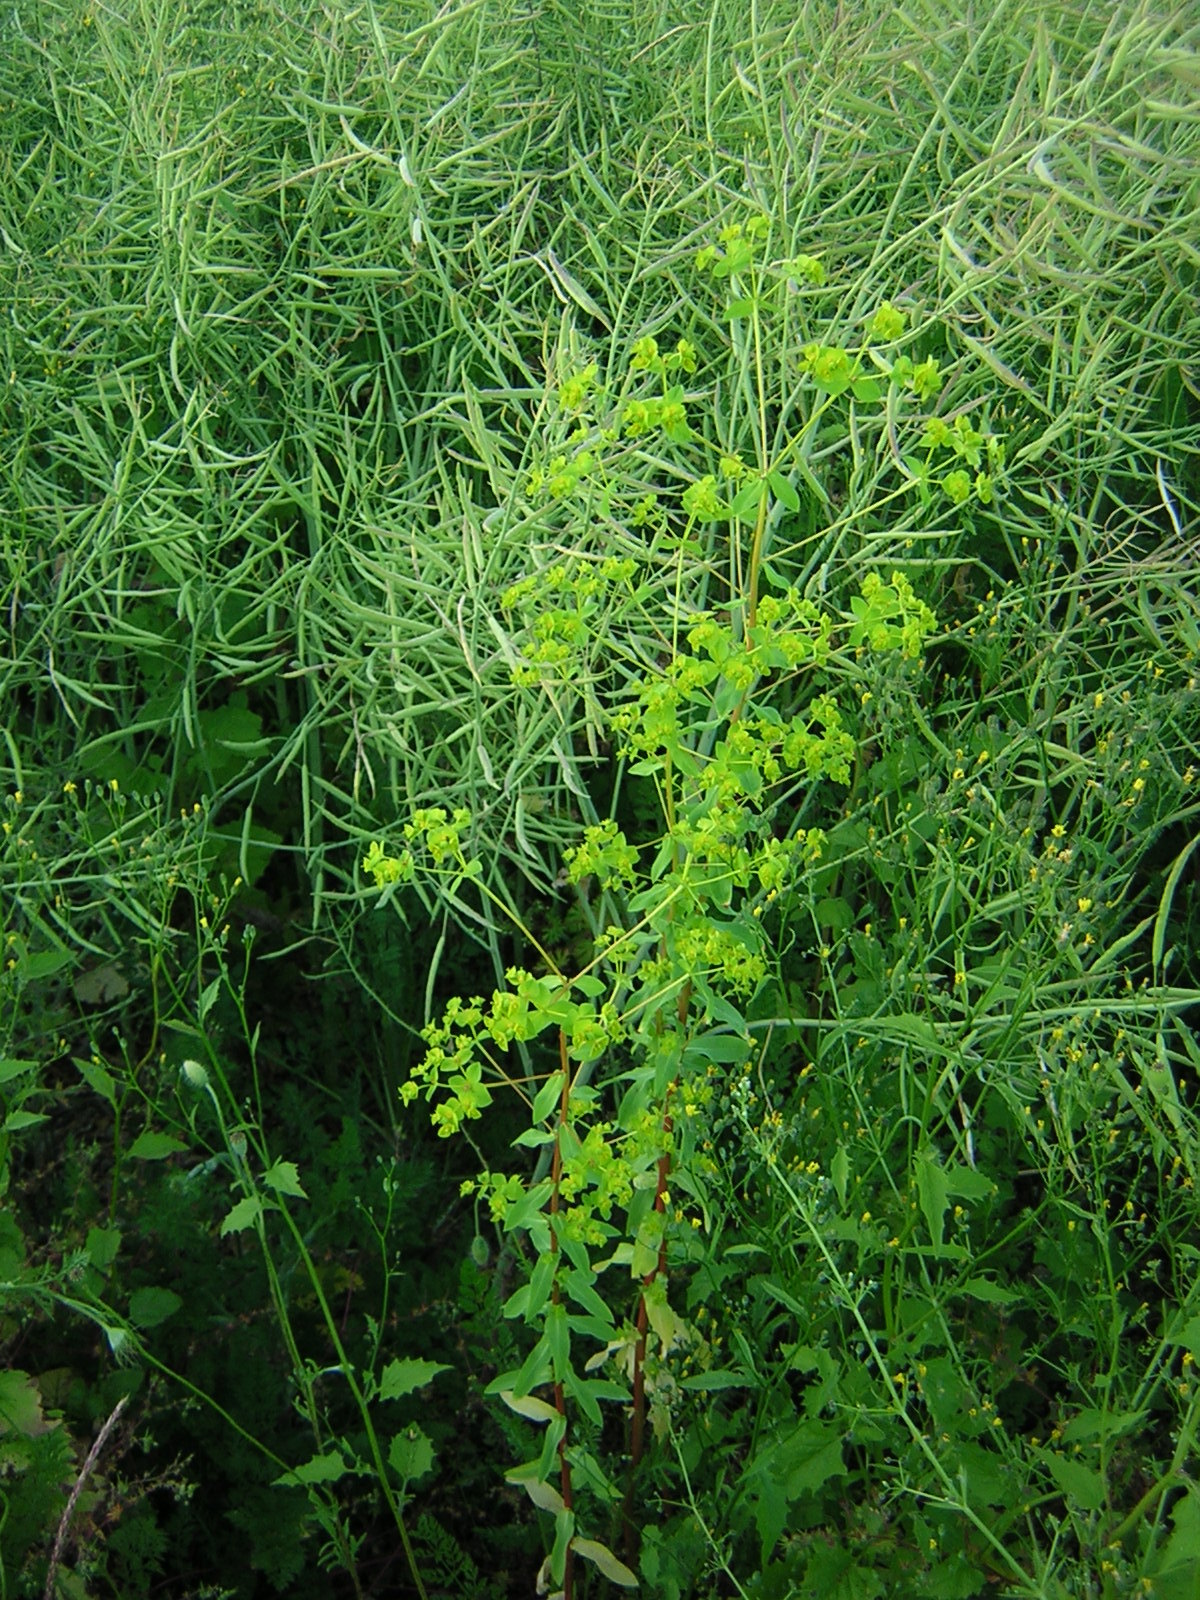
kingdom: Plantae
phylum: Tracheophyta
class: Magnoliopsida
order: Malpighiales
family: Euphorbiaceae
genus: Euphorbia
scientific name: Euphorbia platyphyllos
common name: Broad-leaved spurge
